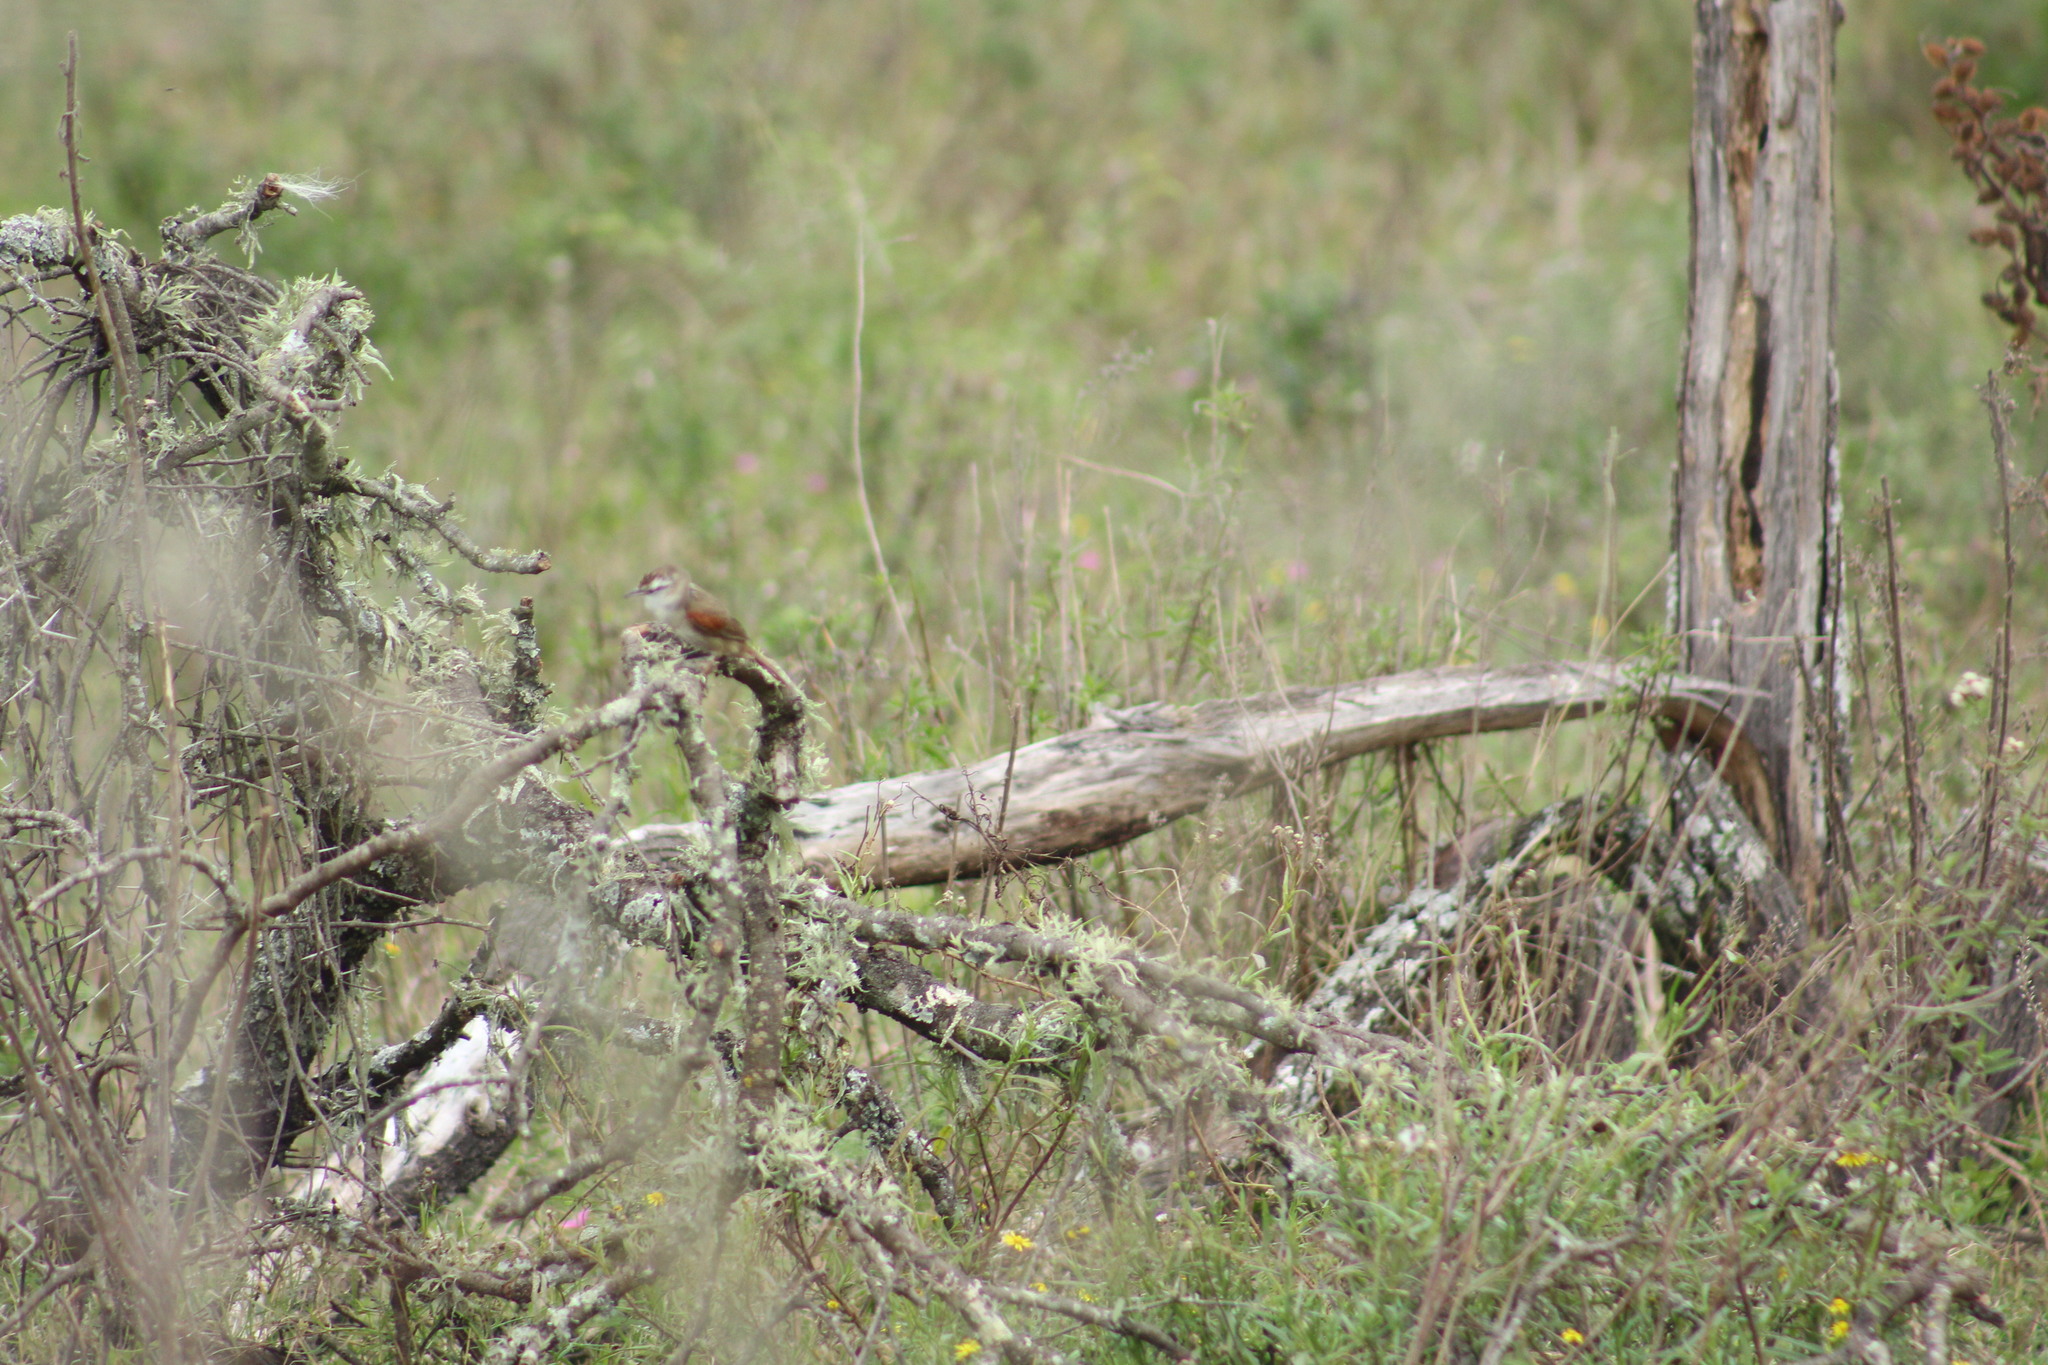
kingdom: Animalia
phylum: Chordata
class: Aves
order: Passeriformes
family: Furnariidae
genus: Cranioleuca
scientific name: Cranioleuca pyrrhophia
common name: Stripe-crowned spinetail
